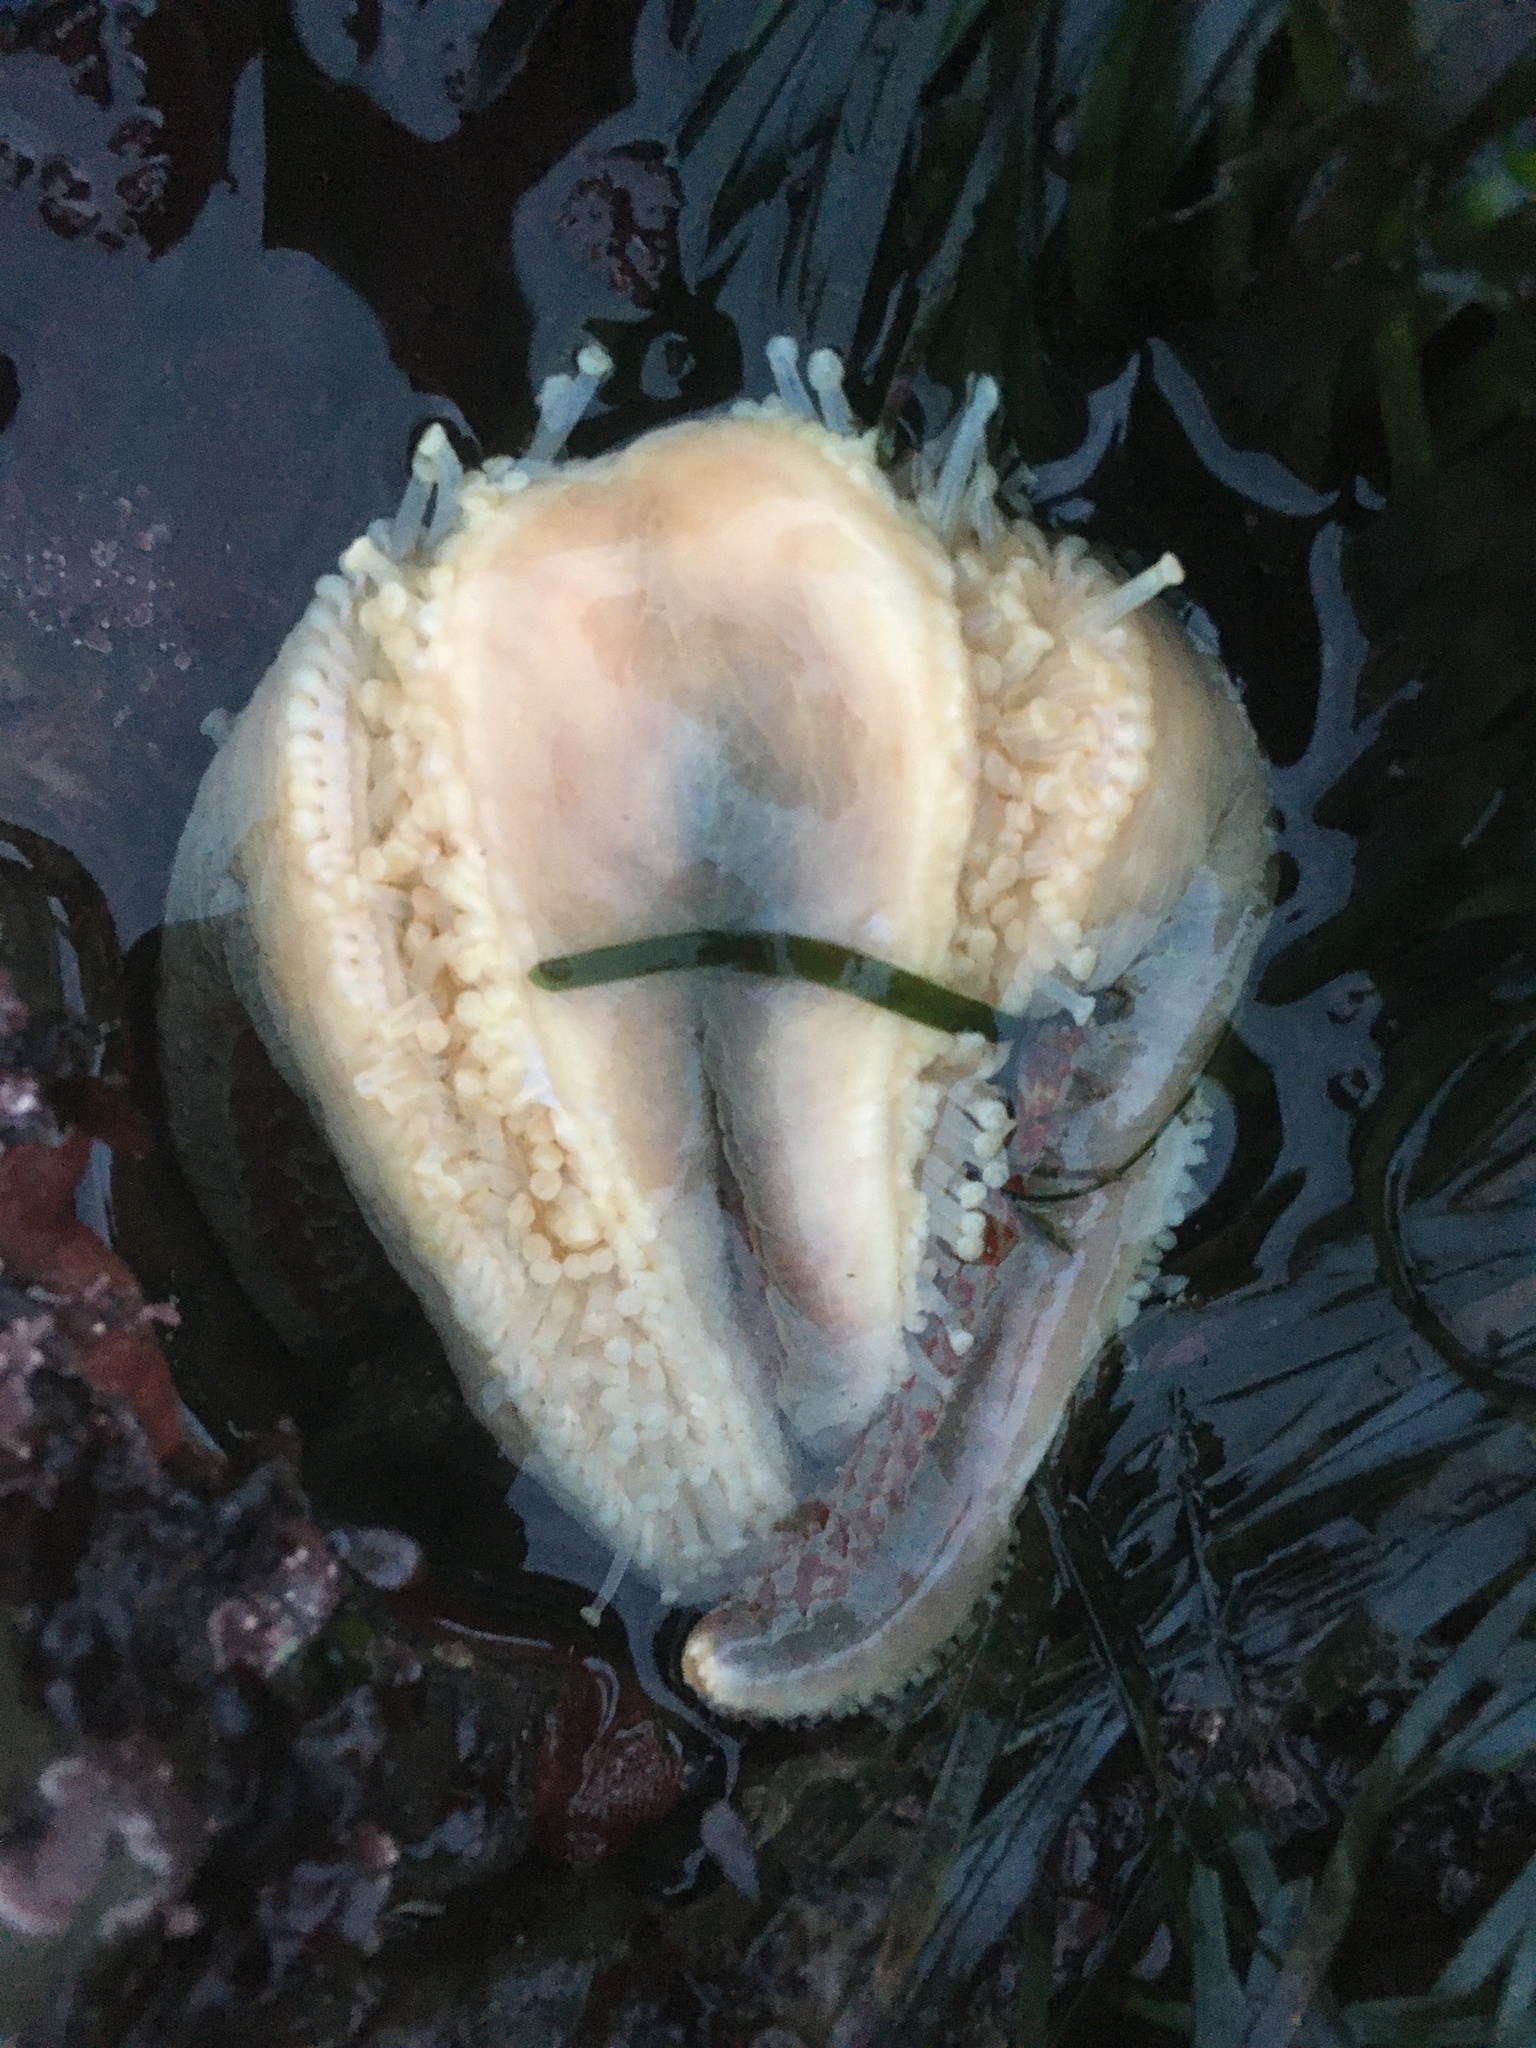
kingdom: Animalia
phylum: Echinodermata
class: Asteroidea
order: Valvatida
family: Asteropseidae
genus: Dermasterias
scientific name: Dermasterias imbricata
